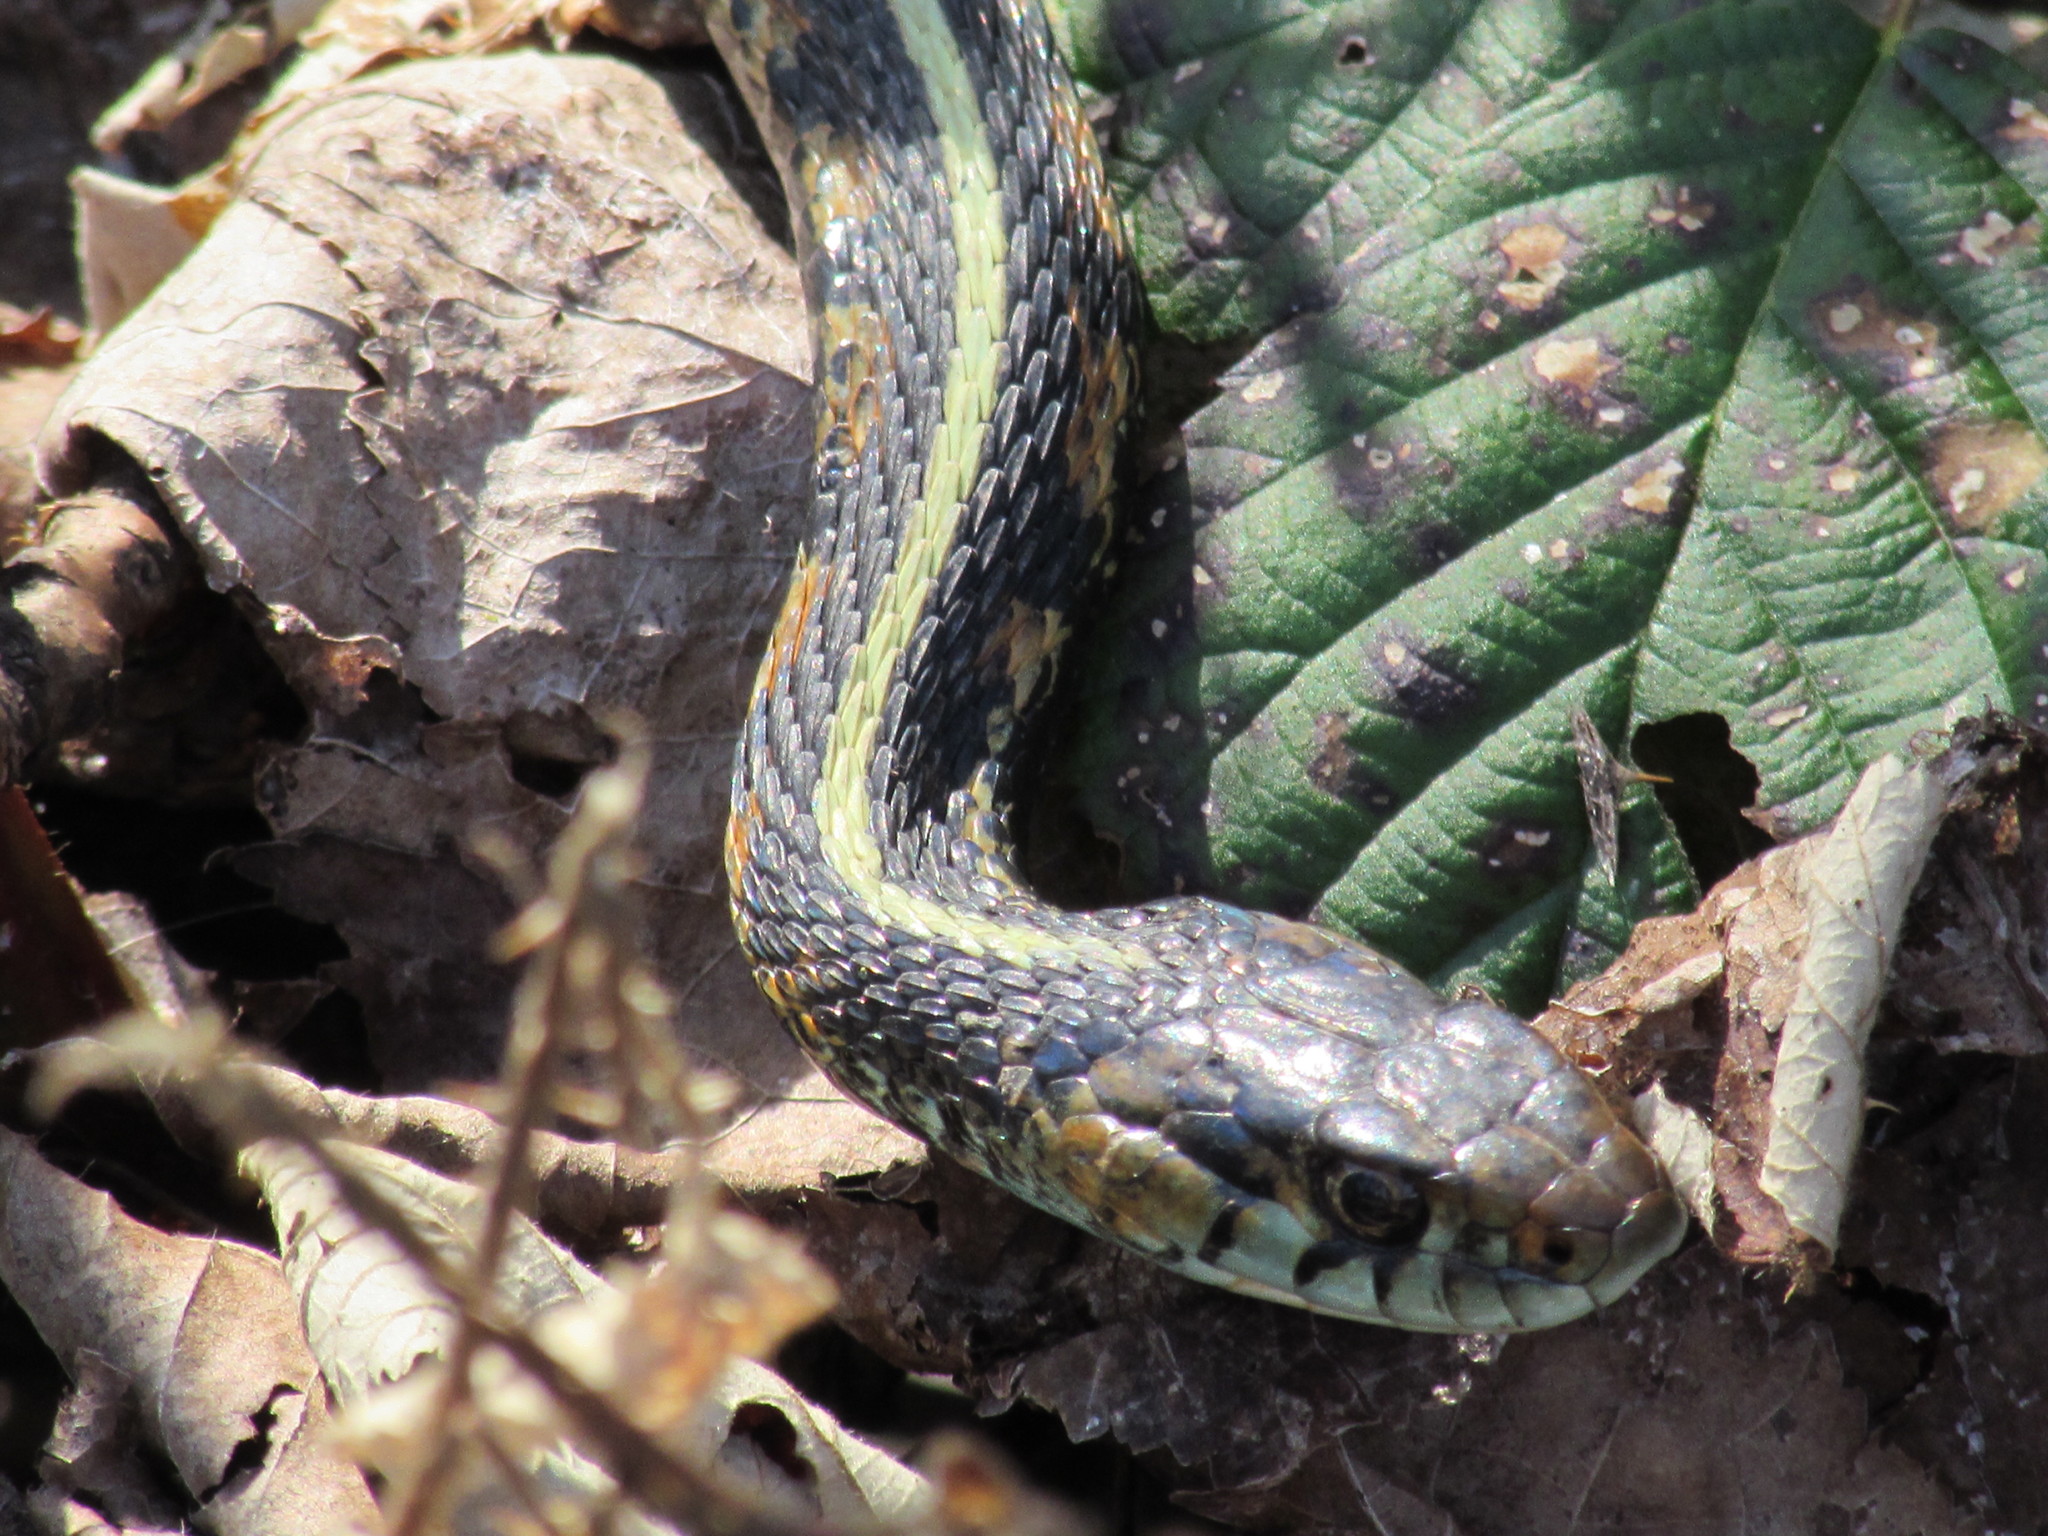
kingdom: Animalia
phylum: Chordata
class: Squamata
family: Colubridae
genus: Thamnophis
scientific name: Thamnophis sirtalis
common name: Common garter snake
